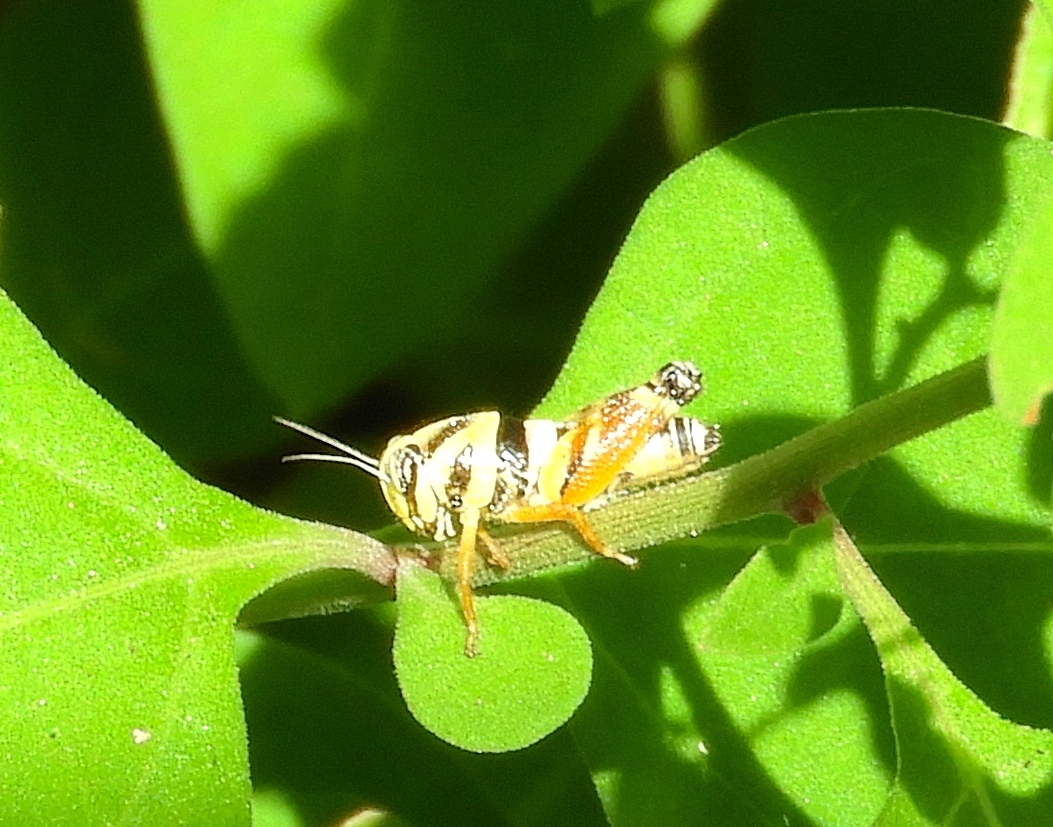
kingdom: Animalia
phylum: Arthropoda
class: Insecta
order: Orthoptera
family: Acrididae
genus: Aidemona
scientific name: Aidemona azteca
